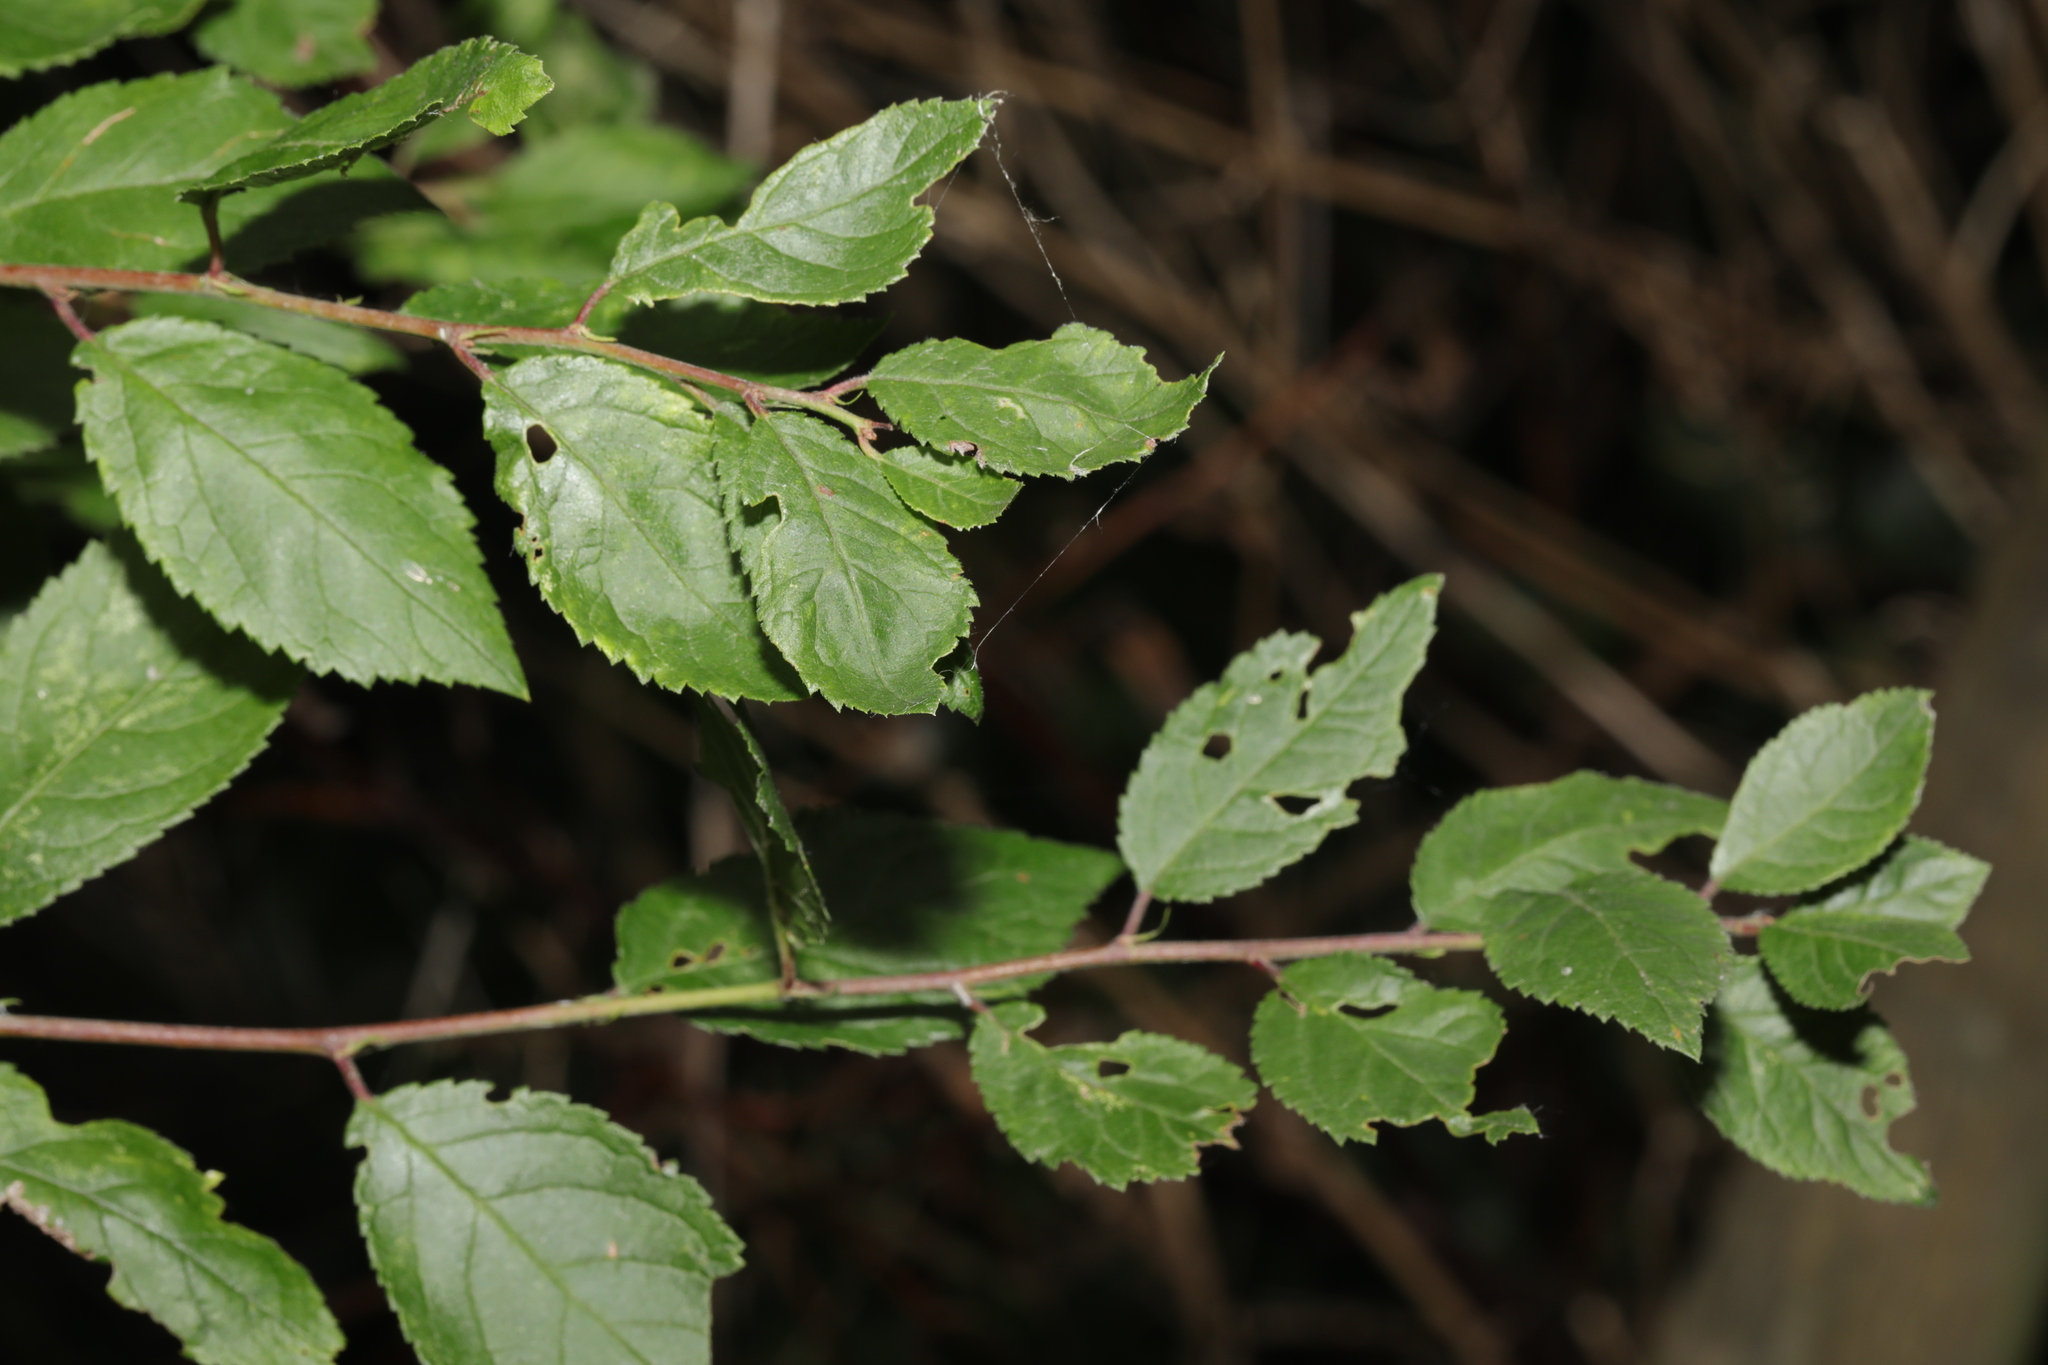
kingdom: Plantae
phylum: Tracheophyta
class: Magnoliopsida
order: Rosales
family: Rosaceae
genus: Prunus
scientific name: Prunus spinosa
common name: Blackthorn
